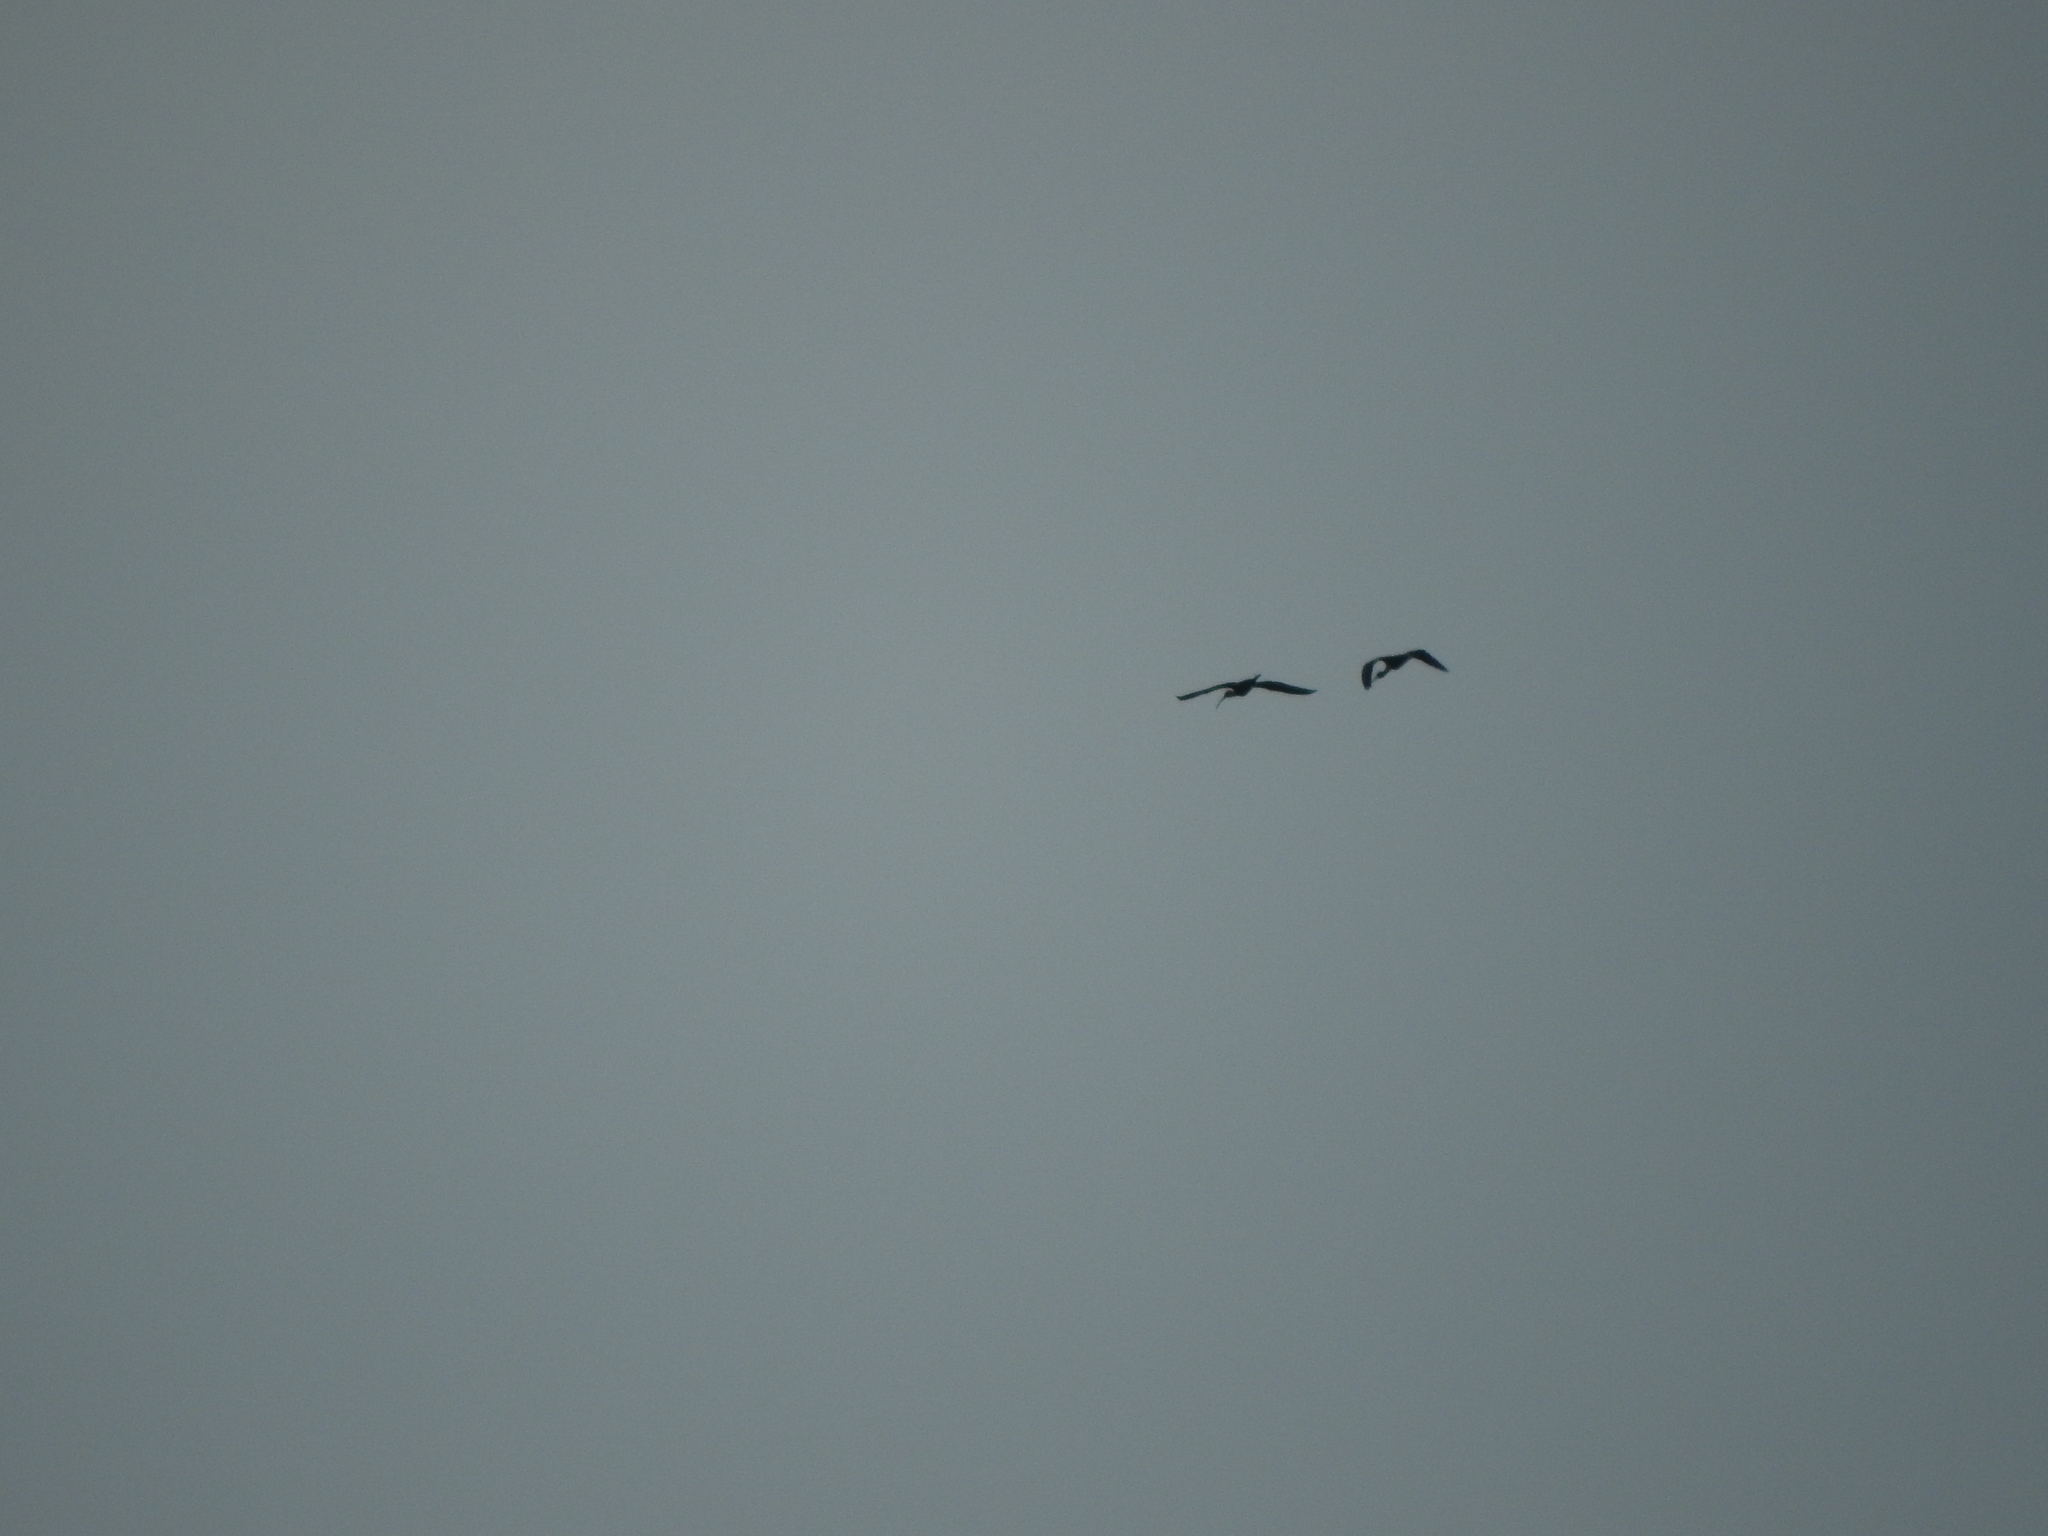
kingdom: Animalia
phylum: Chordata
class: Aves
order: Pelecaniformes
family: Threskiornithidae
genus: Plegadis
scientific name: Plegadis chihi
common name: White-faced ibis
